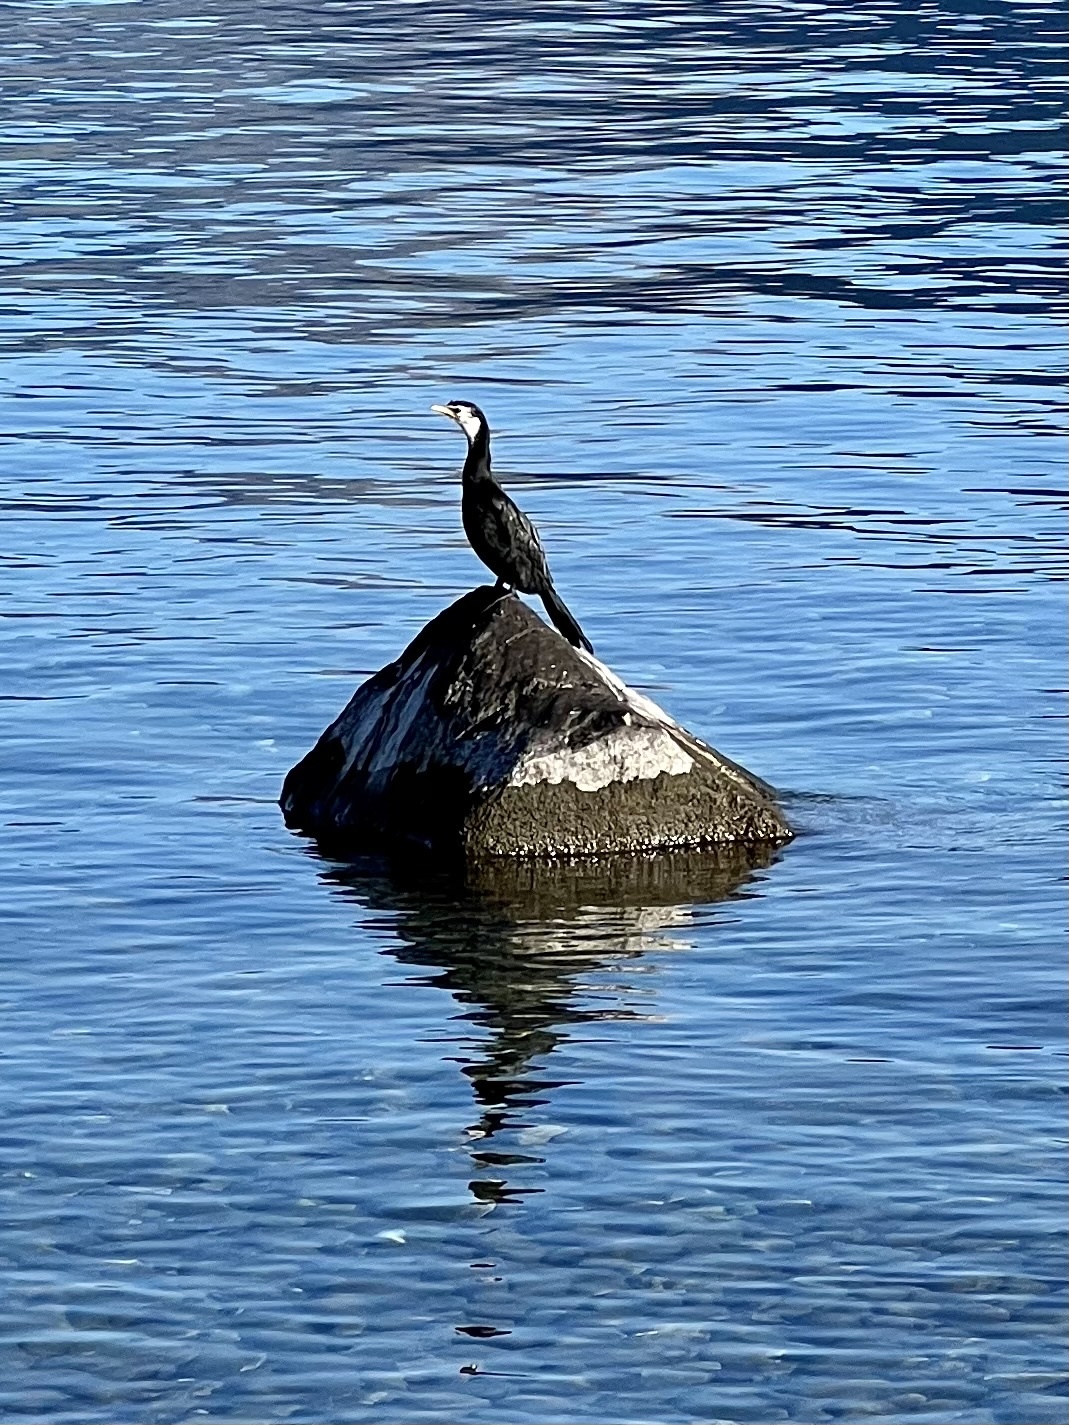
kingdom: Animalia
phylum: Chordata
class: Aves
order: Suliformes
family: Phalacrocoracidae
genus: Microcarbo
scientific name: Microcarbo melanoleucos
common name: Little pied cormorant
